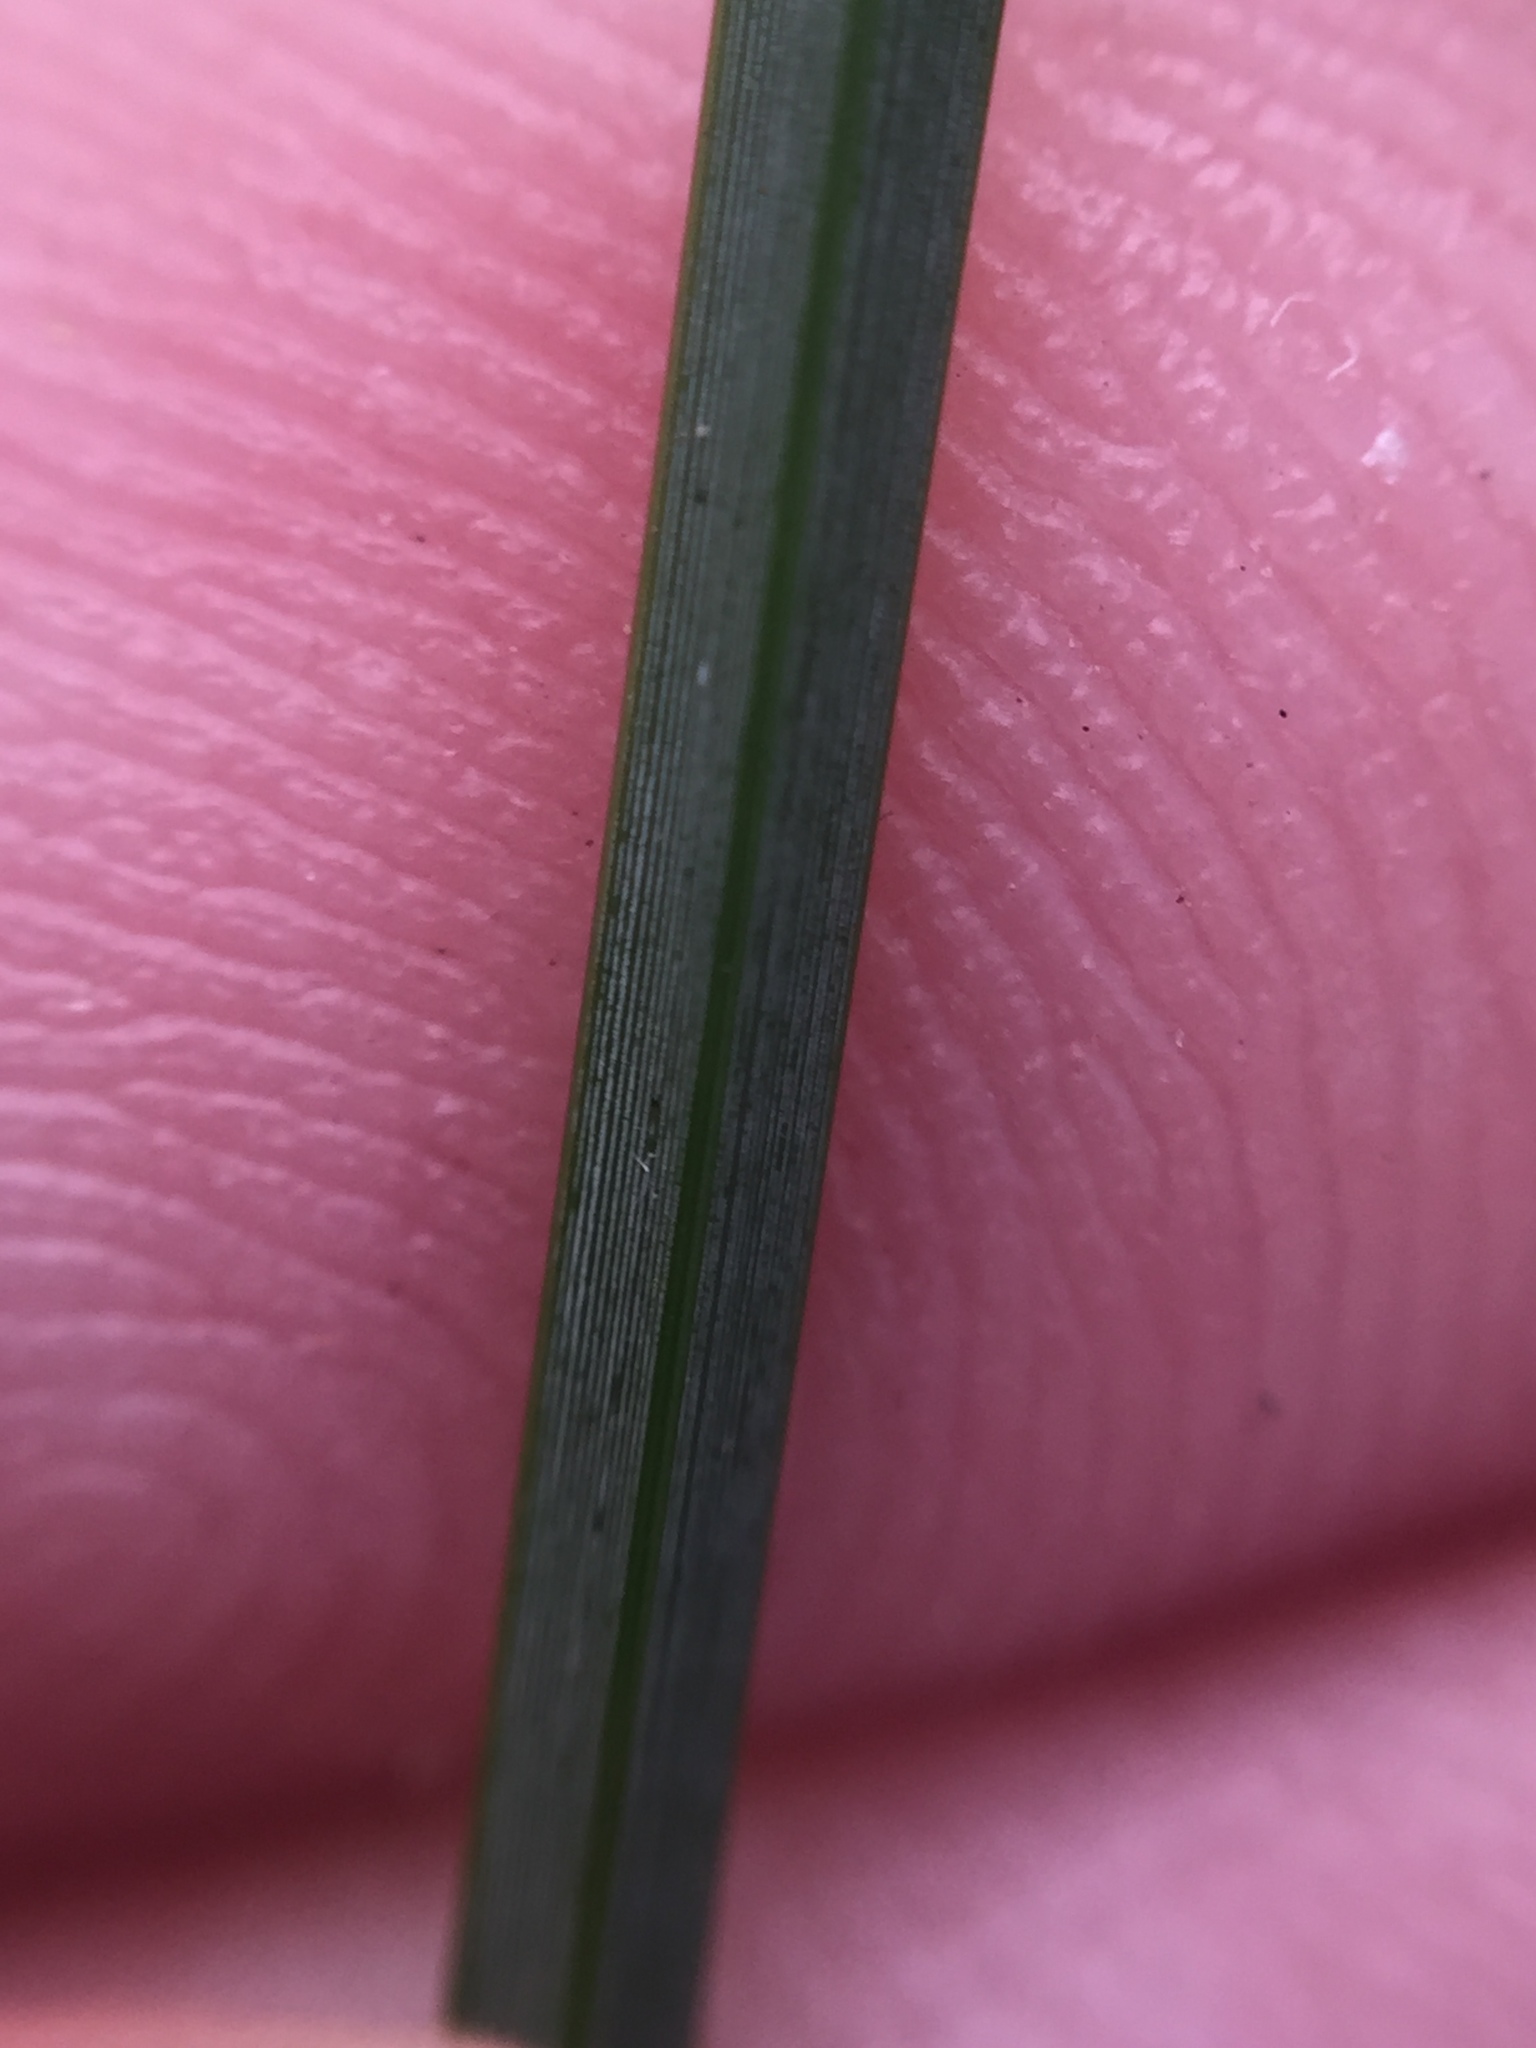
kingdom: Plantae
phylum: Tracheophyta
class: Liliopsida
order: Poales
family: Cyperaceae
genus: Lepidosperma
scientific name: Lepidosperma australe
